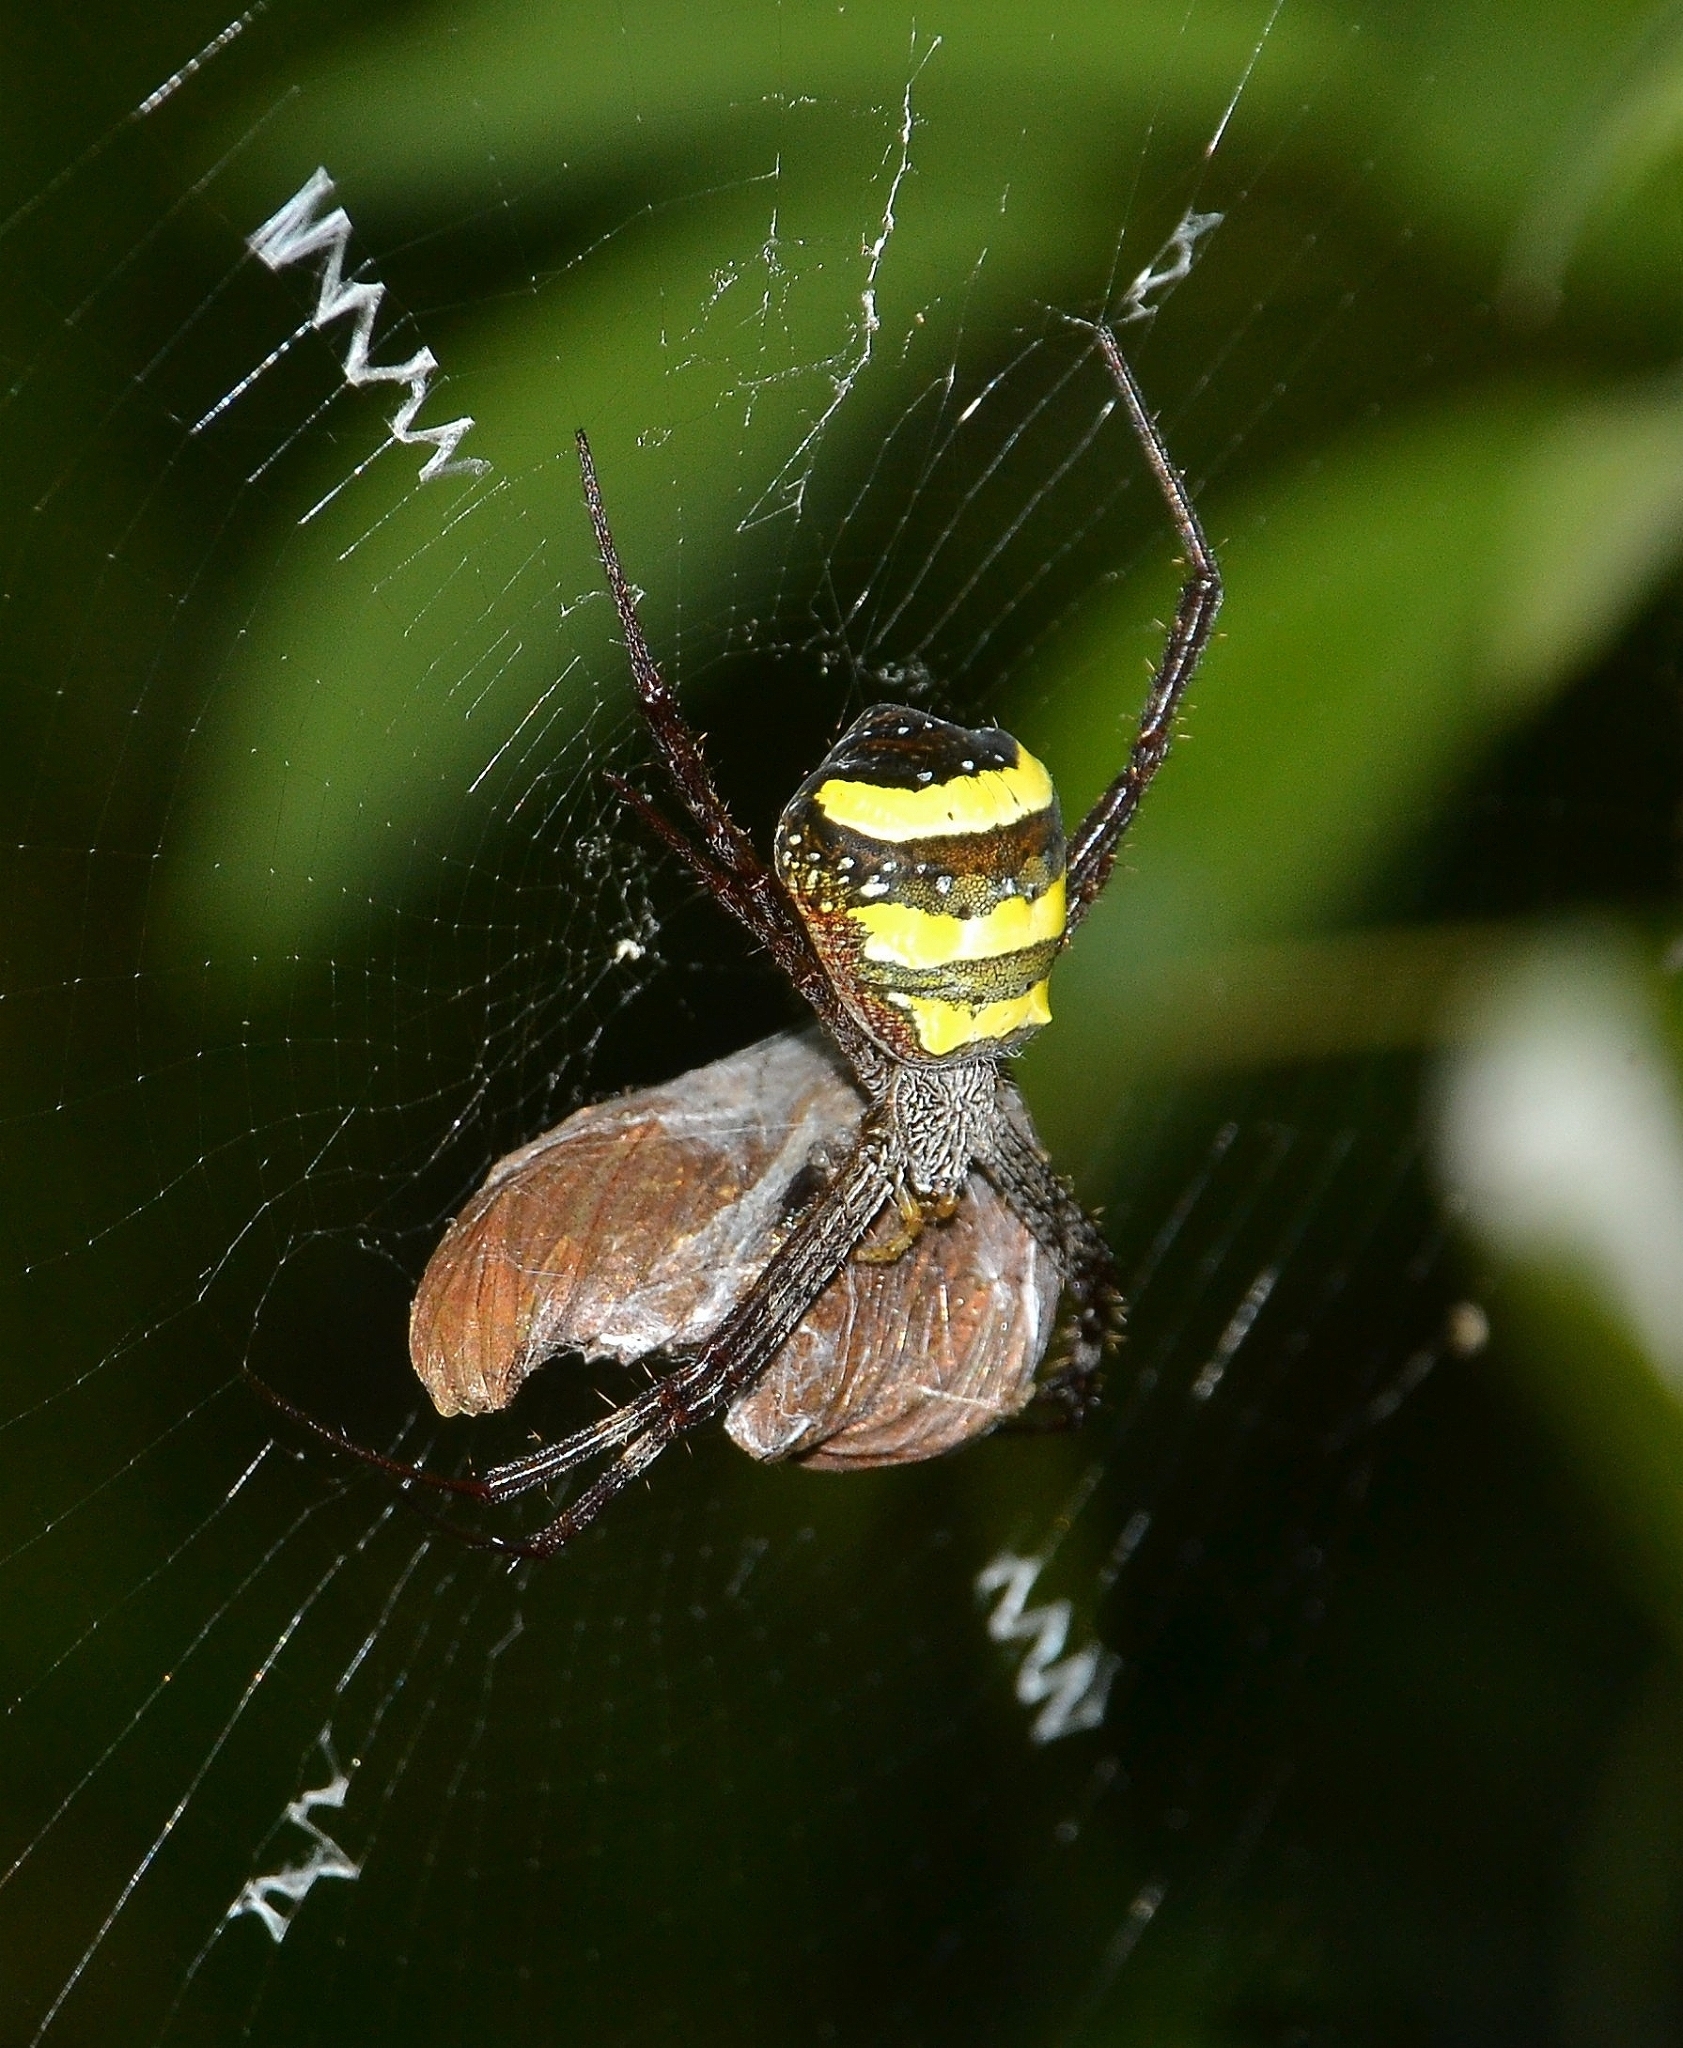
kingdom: Animalia
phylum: Arthropoda
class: Arachnida
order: Araneae
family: Araneidae
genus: Argiope
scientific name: Argiope taprobanica
